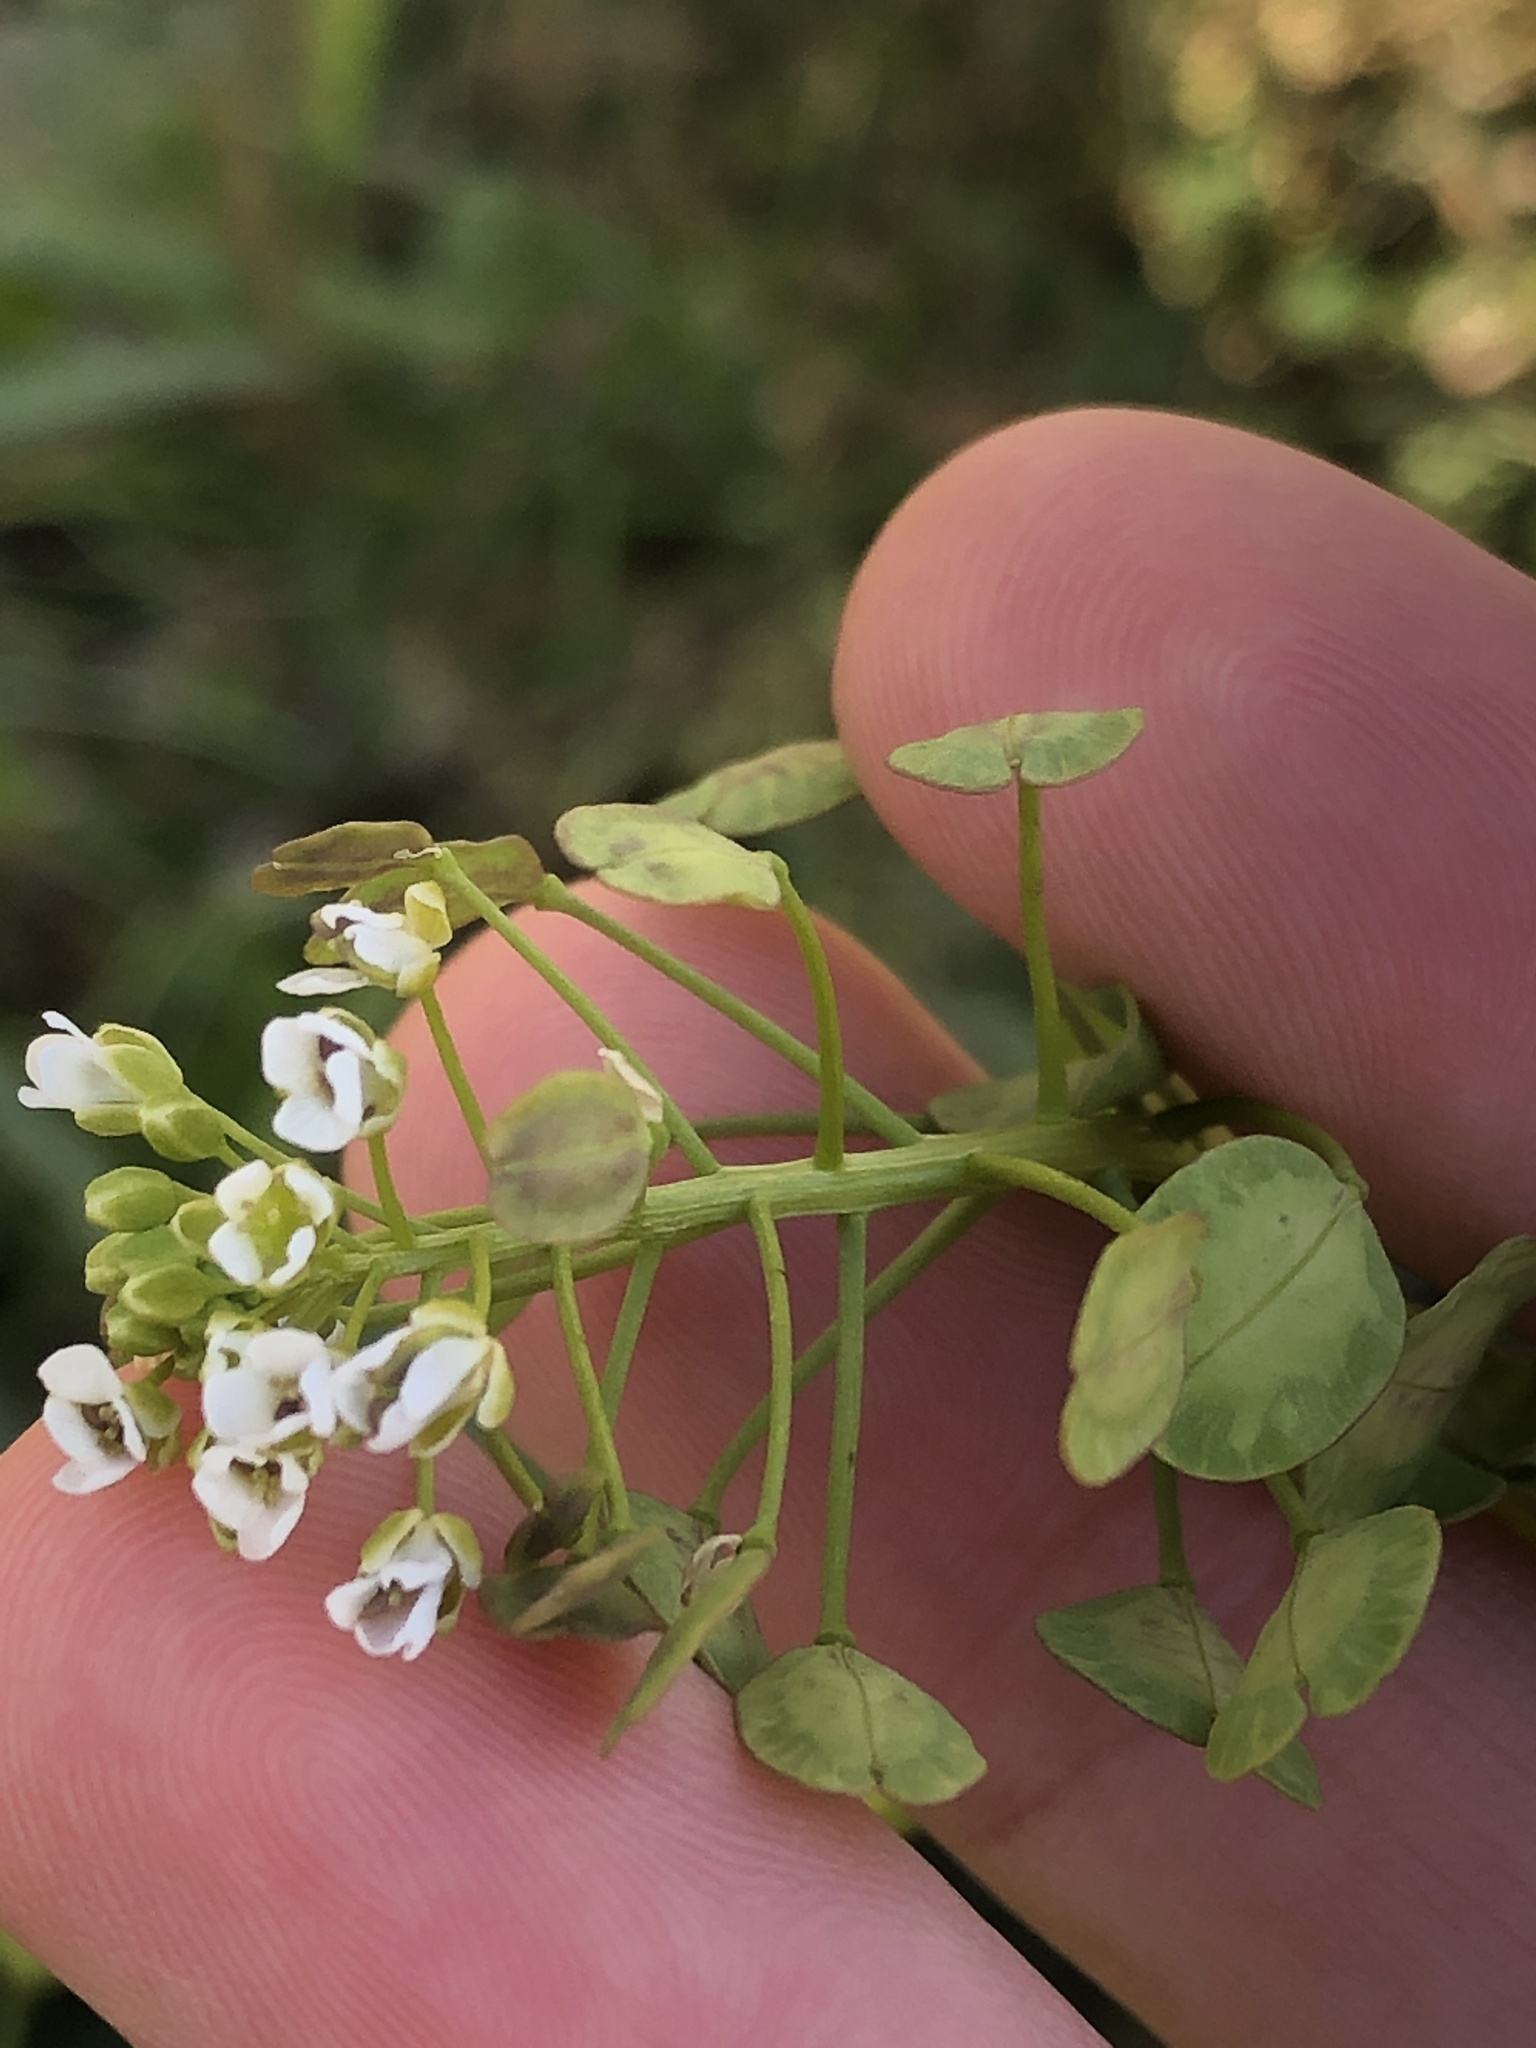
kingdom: Plantae
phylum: Tracheophyta
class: Magnoliopsida
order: Brassicales
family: Brassicaceae
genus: Thlaspi
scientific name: Thlaspi arvense
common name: Field pennycress
